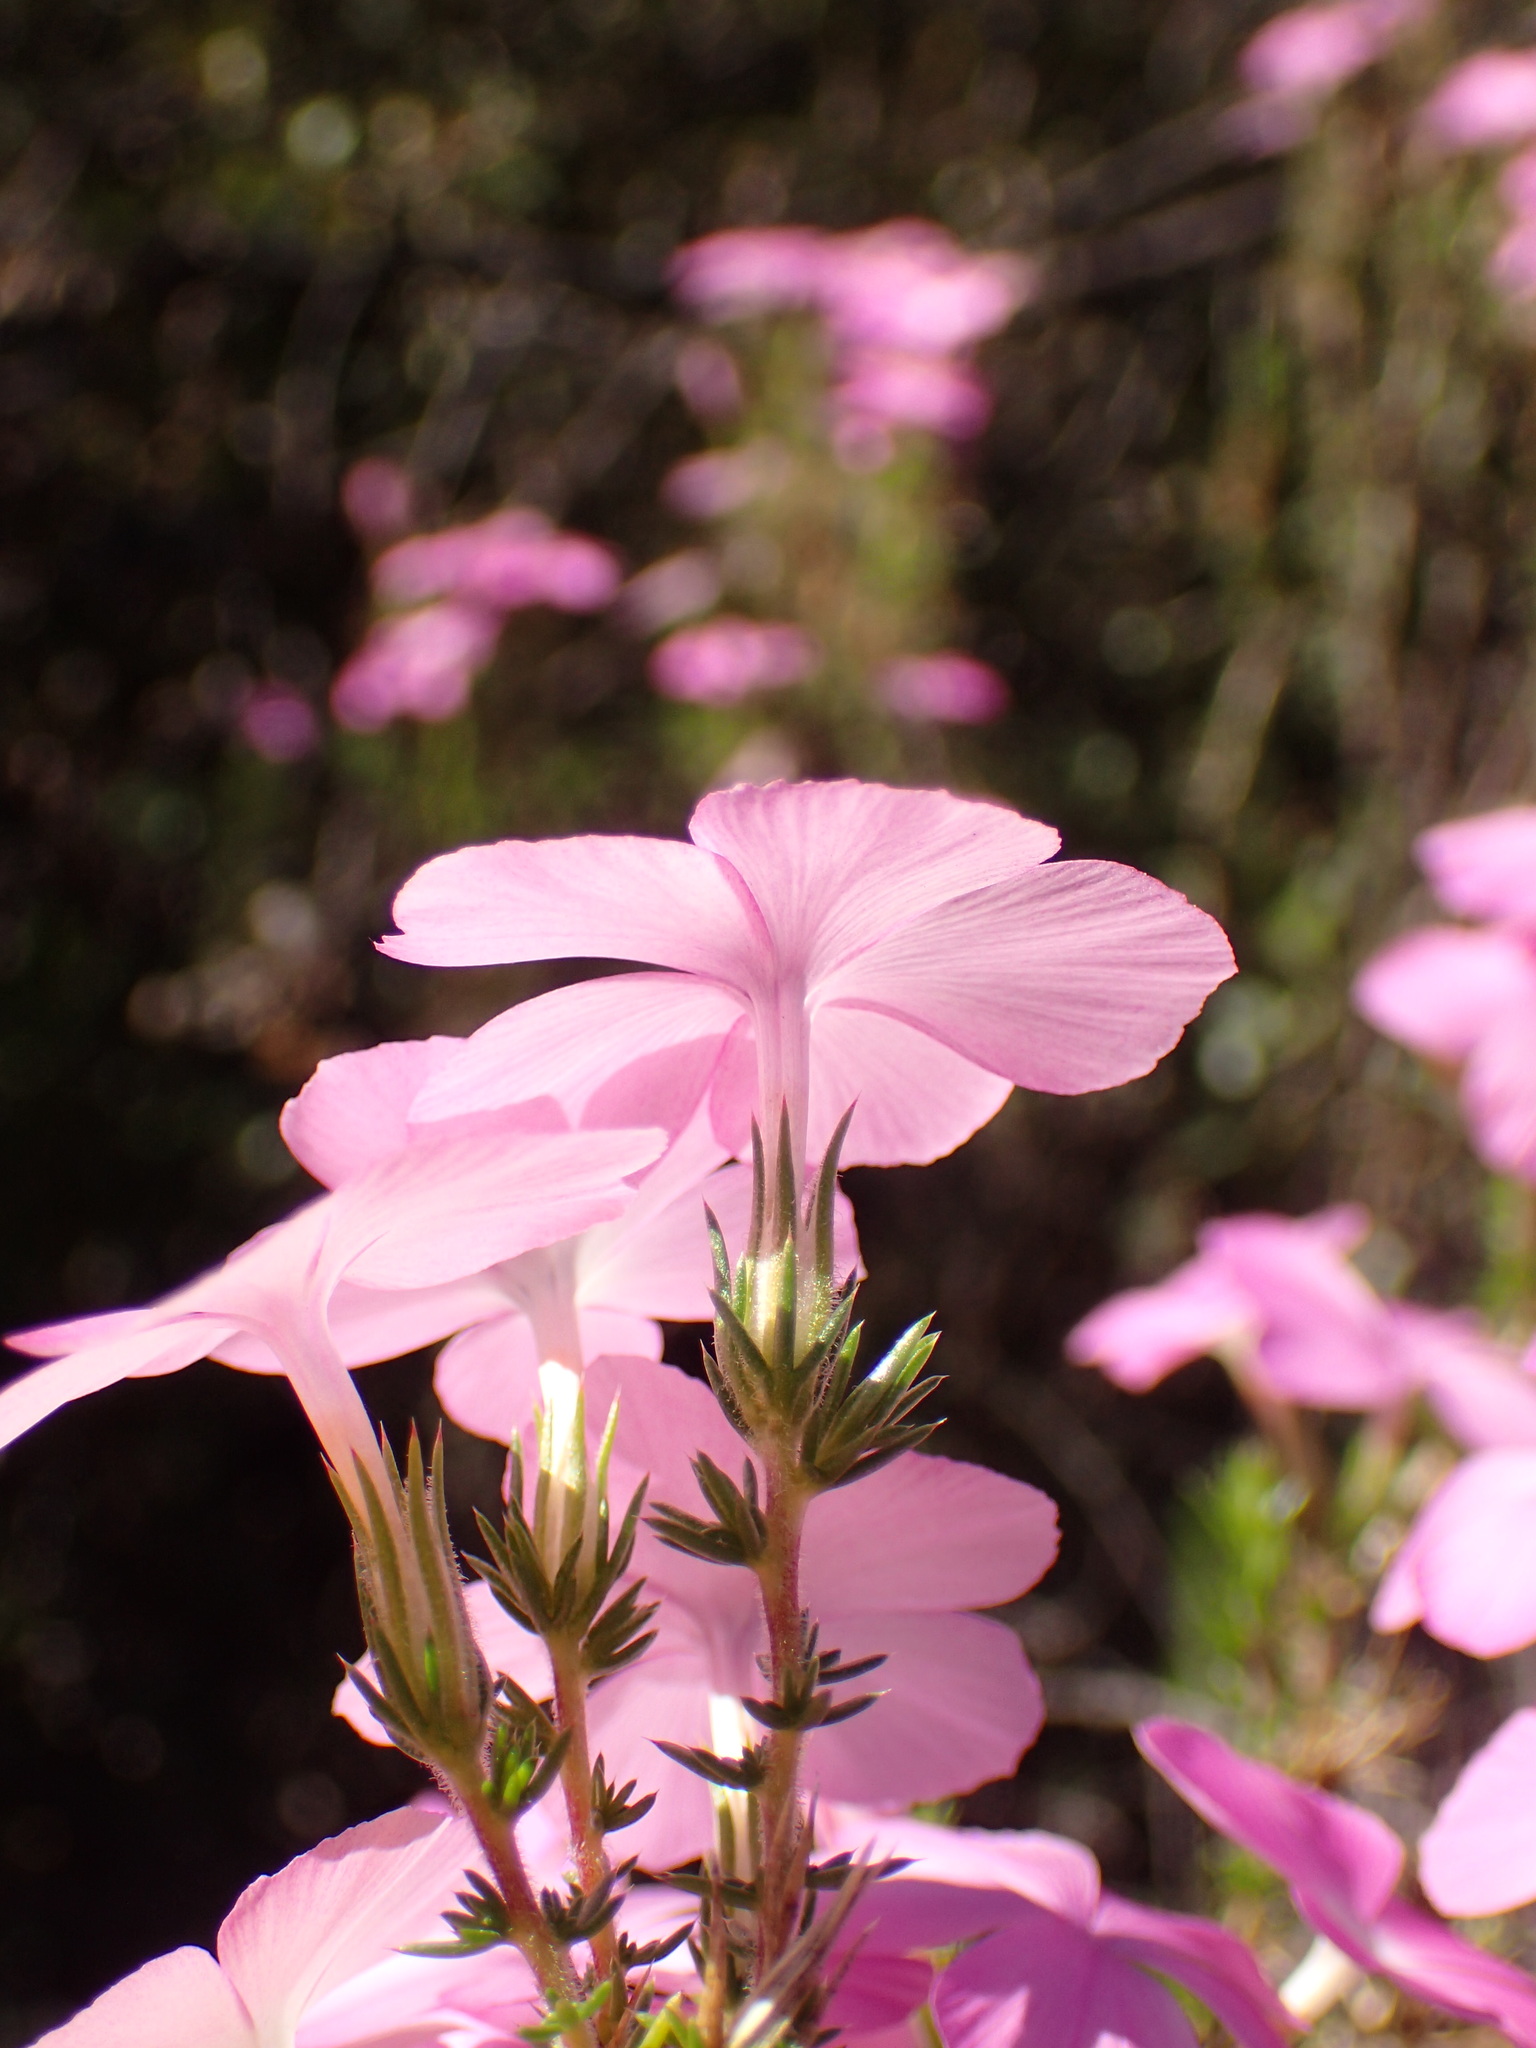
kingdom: Plantae
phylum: Tracheophyta
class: Magnoliopsida
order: Ericales
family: Polemoniaceae
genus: Linanthus
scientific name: Linanthus californicus
